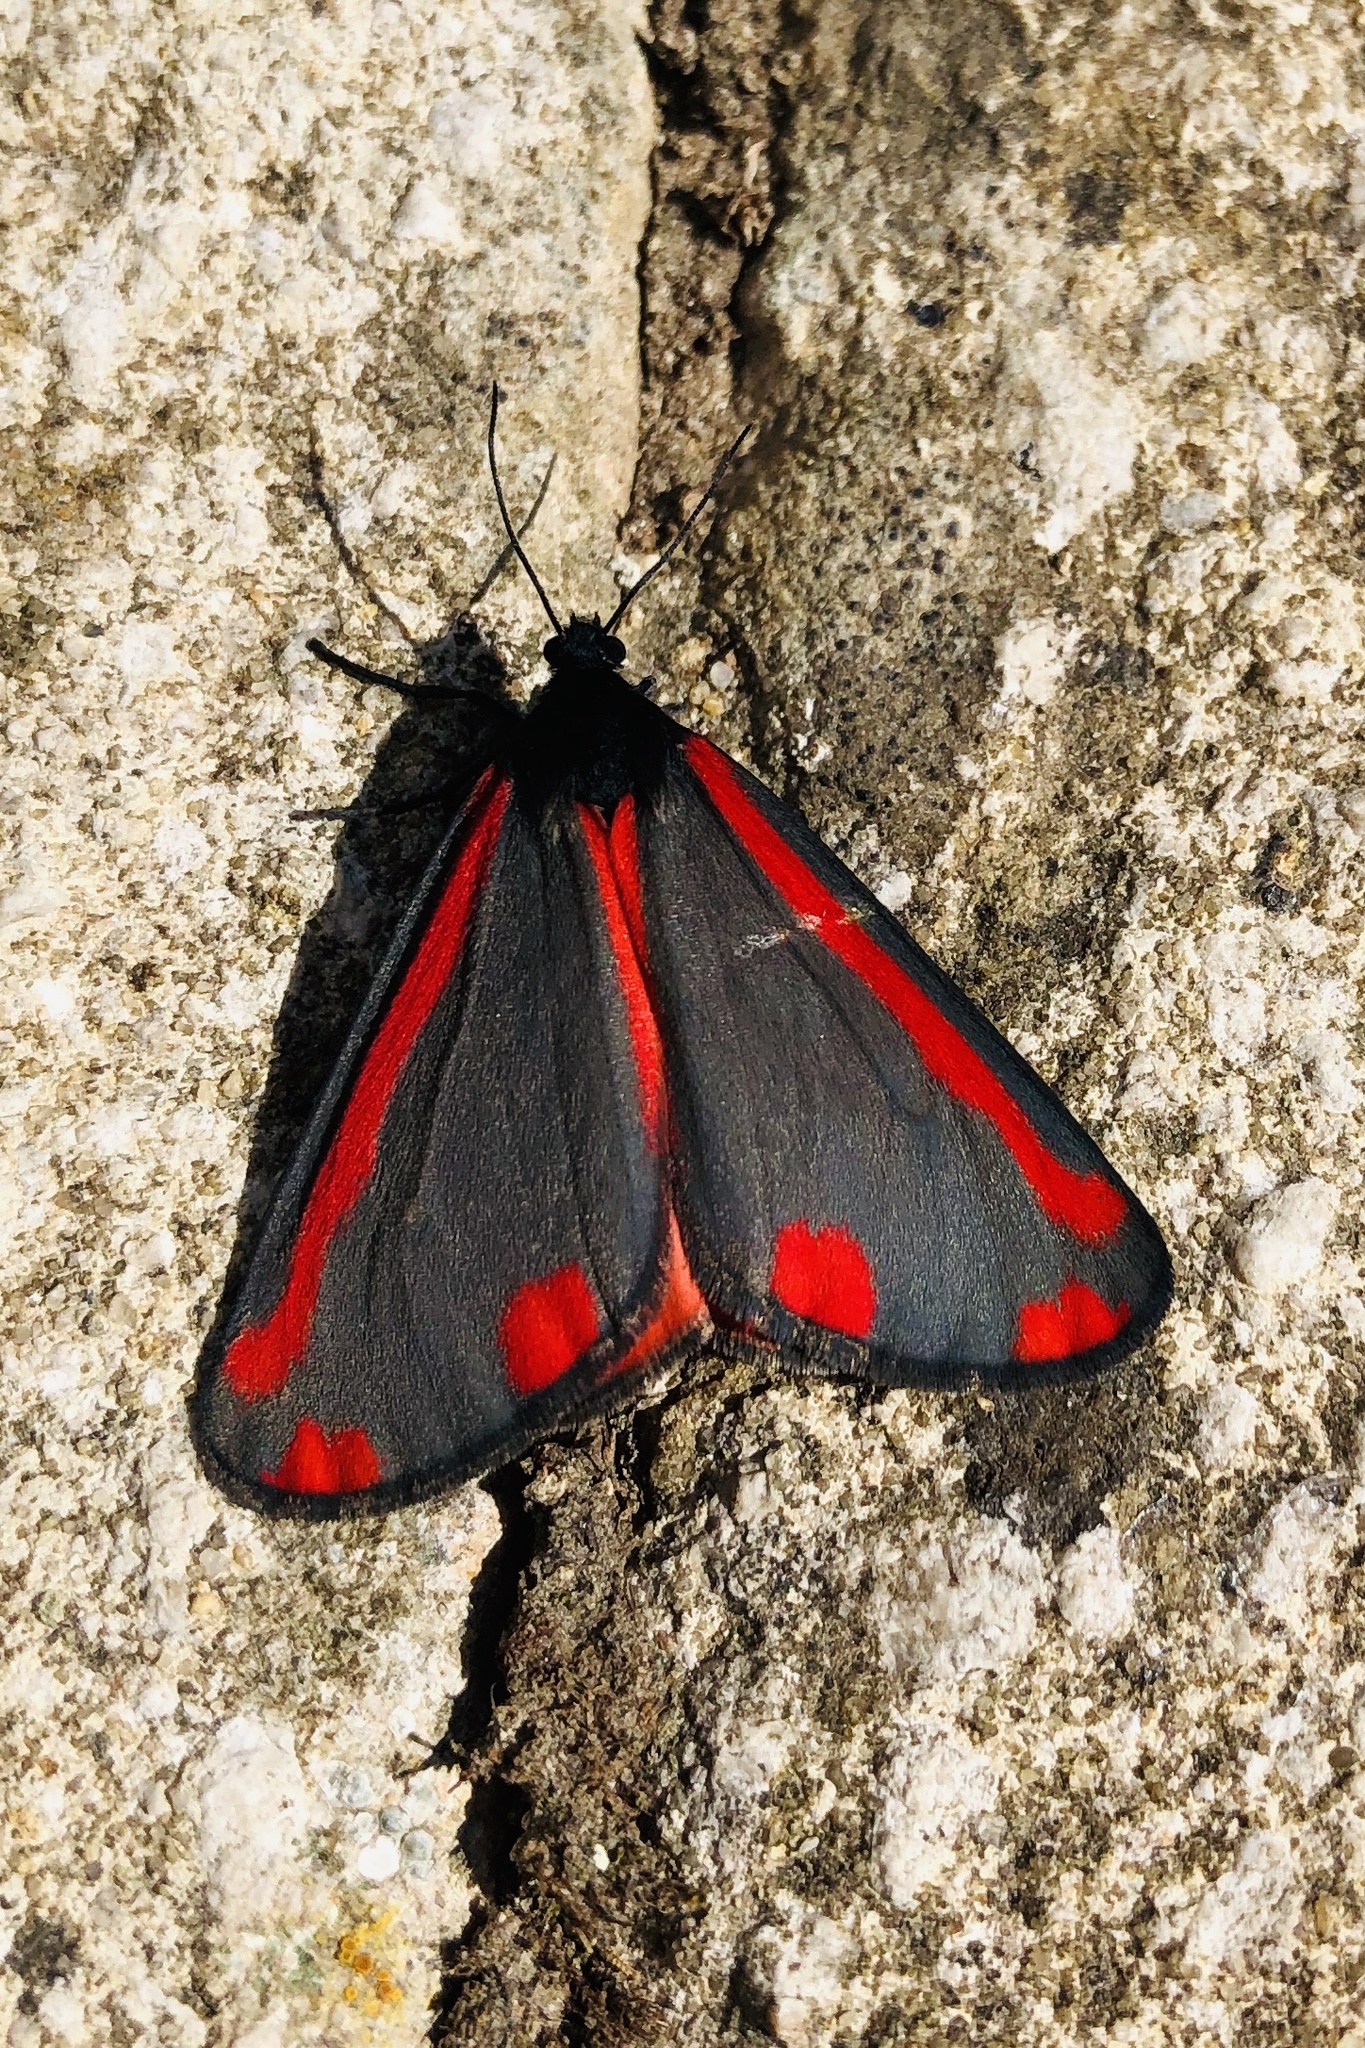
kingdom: Animalia
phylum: Arthropoda
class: Insecta
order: Lepidoptera
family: Erebidae
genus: Tyria
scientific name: Tyria jacobaeae
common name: Cinnabar
